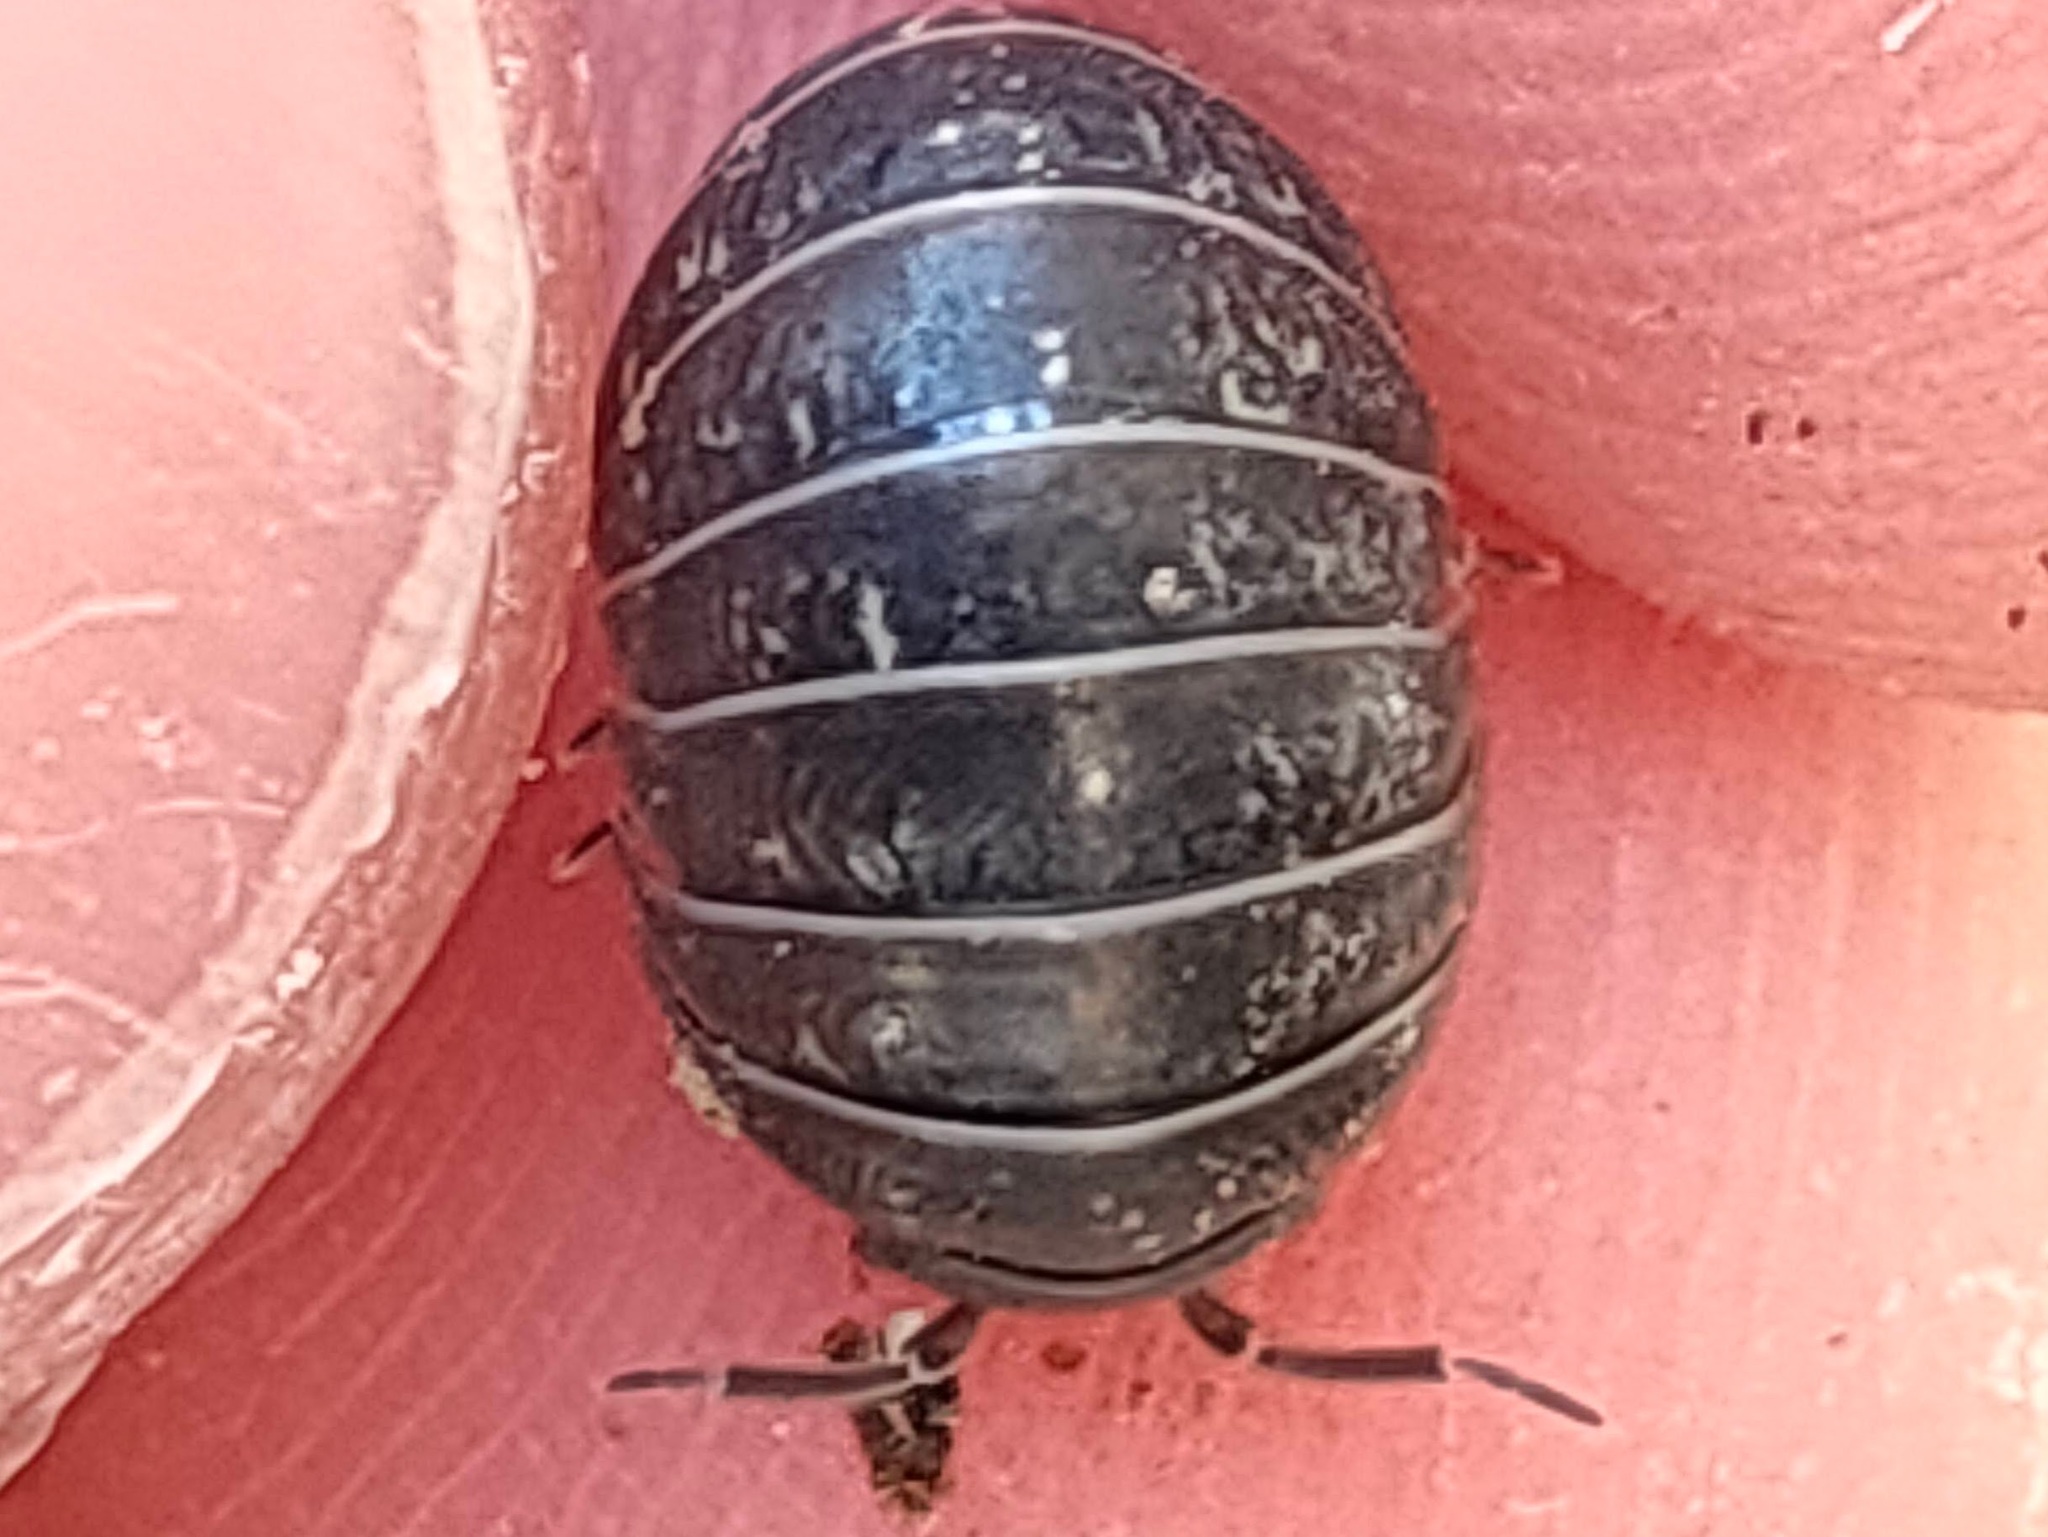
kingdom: Animalia
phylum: Arthropoda
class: Malacostraca
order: Isopoda
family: Armadillidiidae
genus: Armadillidium
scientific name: Armadillidium vulgare
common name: Common pill woodlouse
